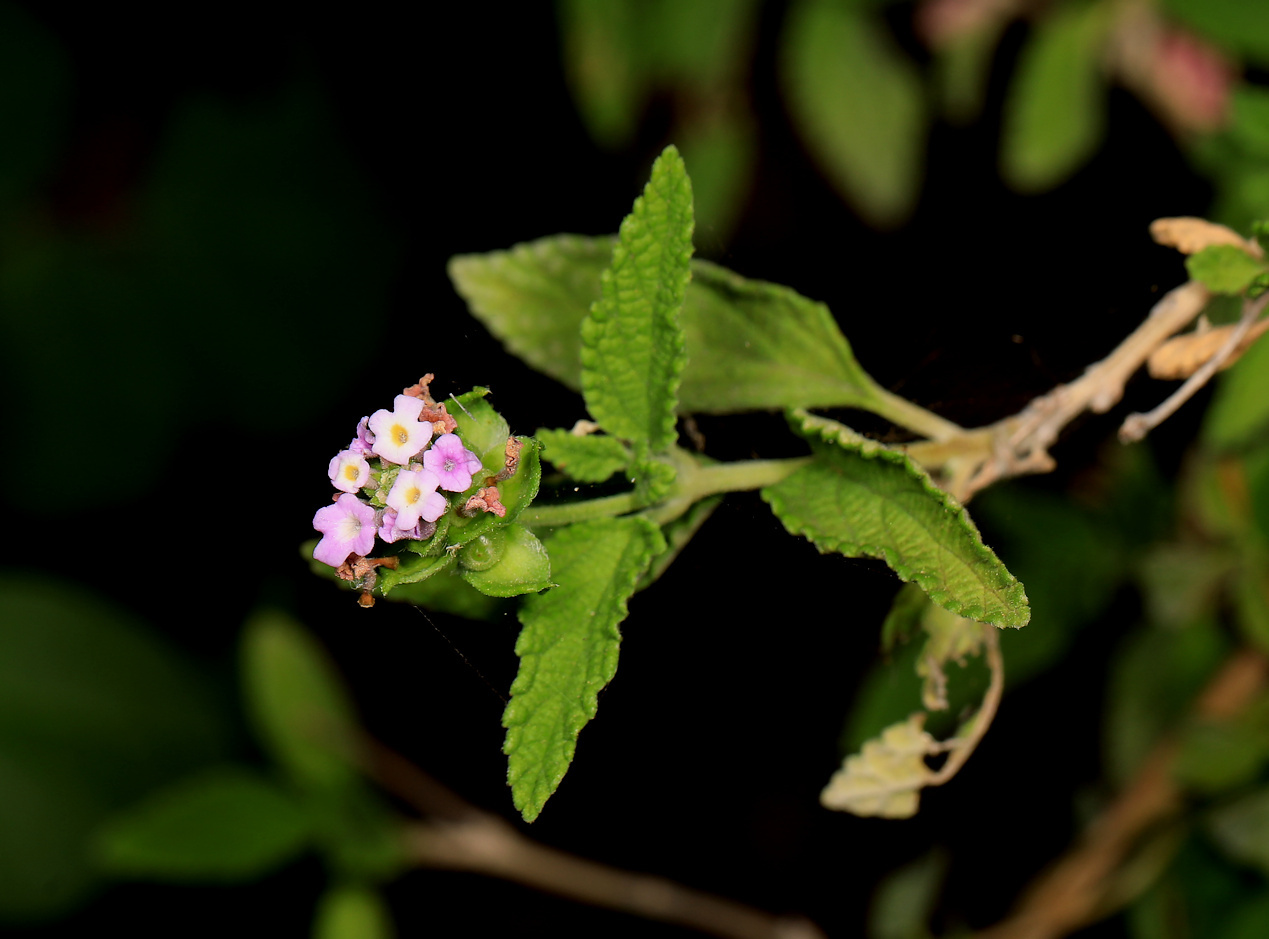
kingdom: Plantae
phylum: Tracheophyta
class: Magnoliopsida
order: Lamiales
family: Verbenaceae
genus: Lantana
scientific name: Lantana rugosa
